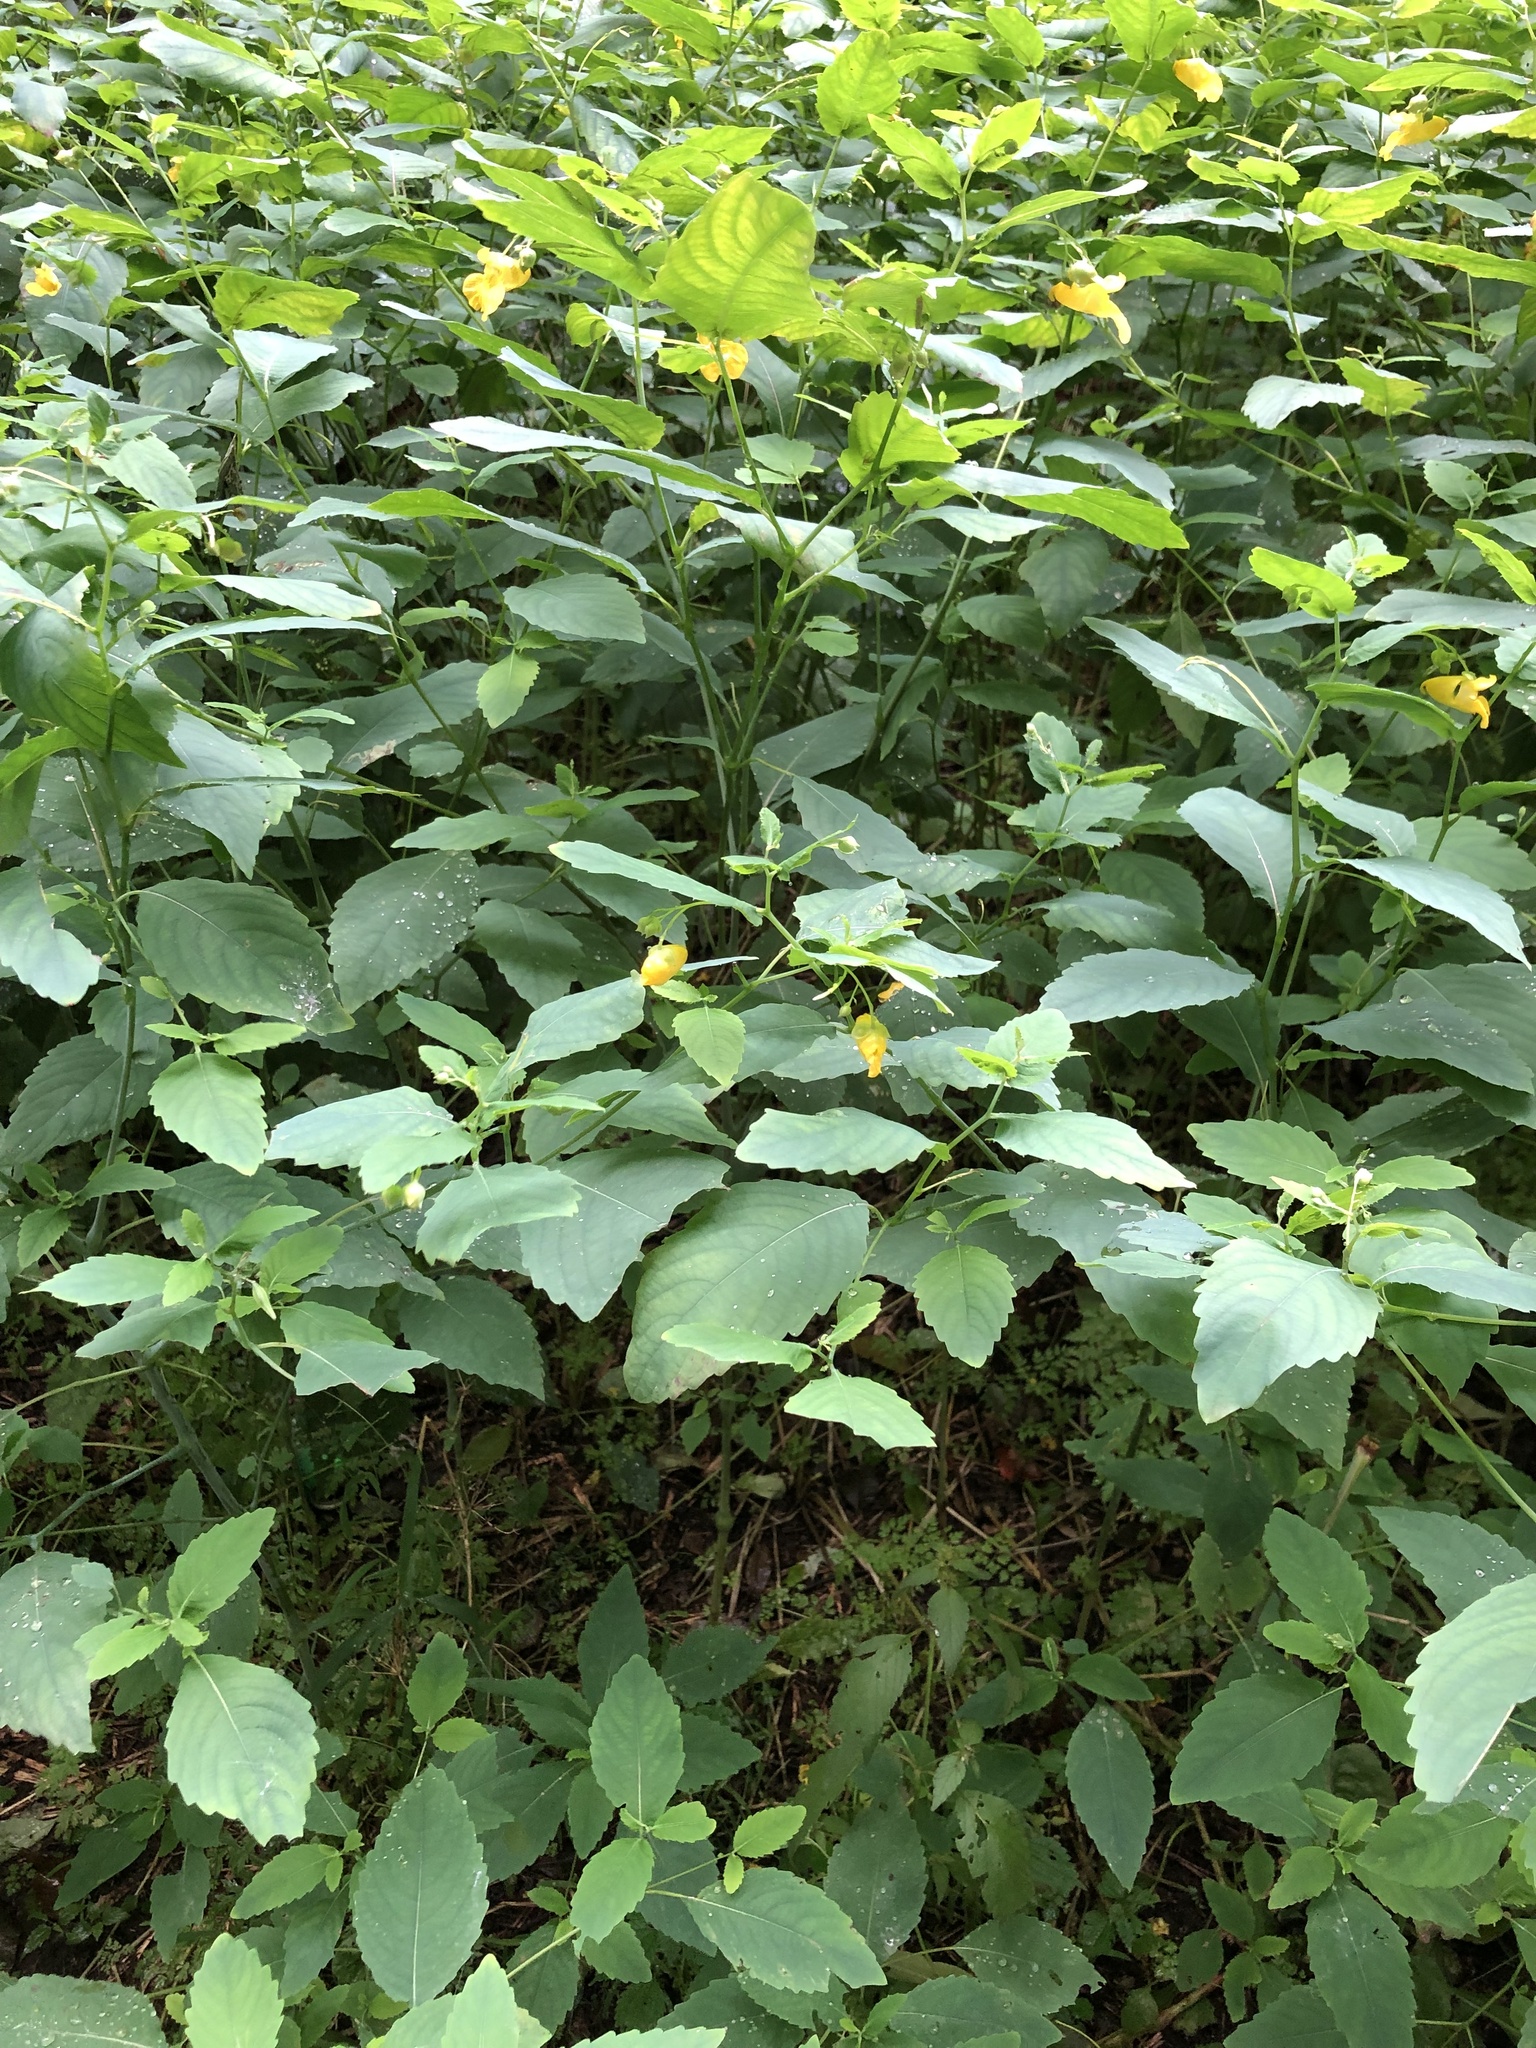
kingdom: Plantae
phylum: Tracheophyta
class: Magnoliopsida
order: Ericales
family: Balsaminaceae
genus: Impatiens
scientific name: Impatiens pallida
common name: Pale snapweed
